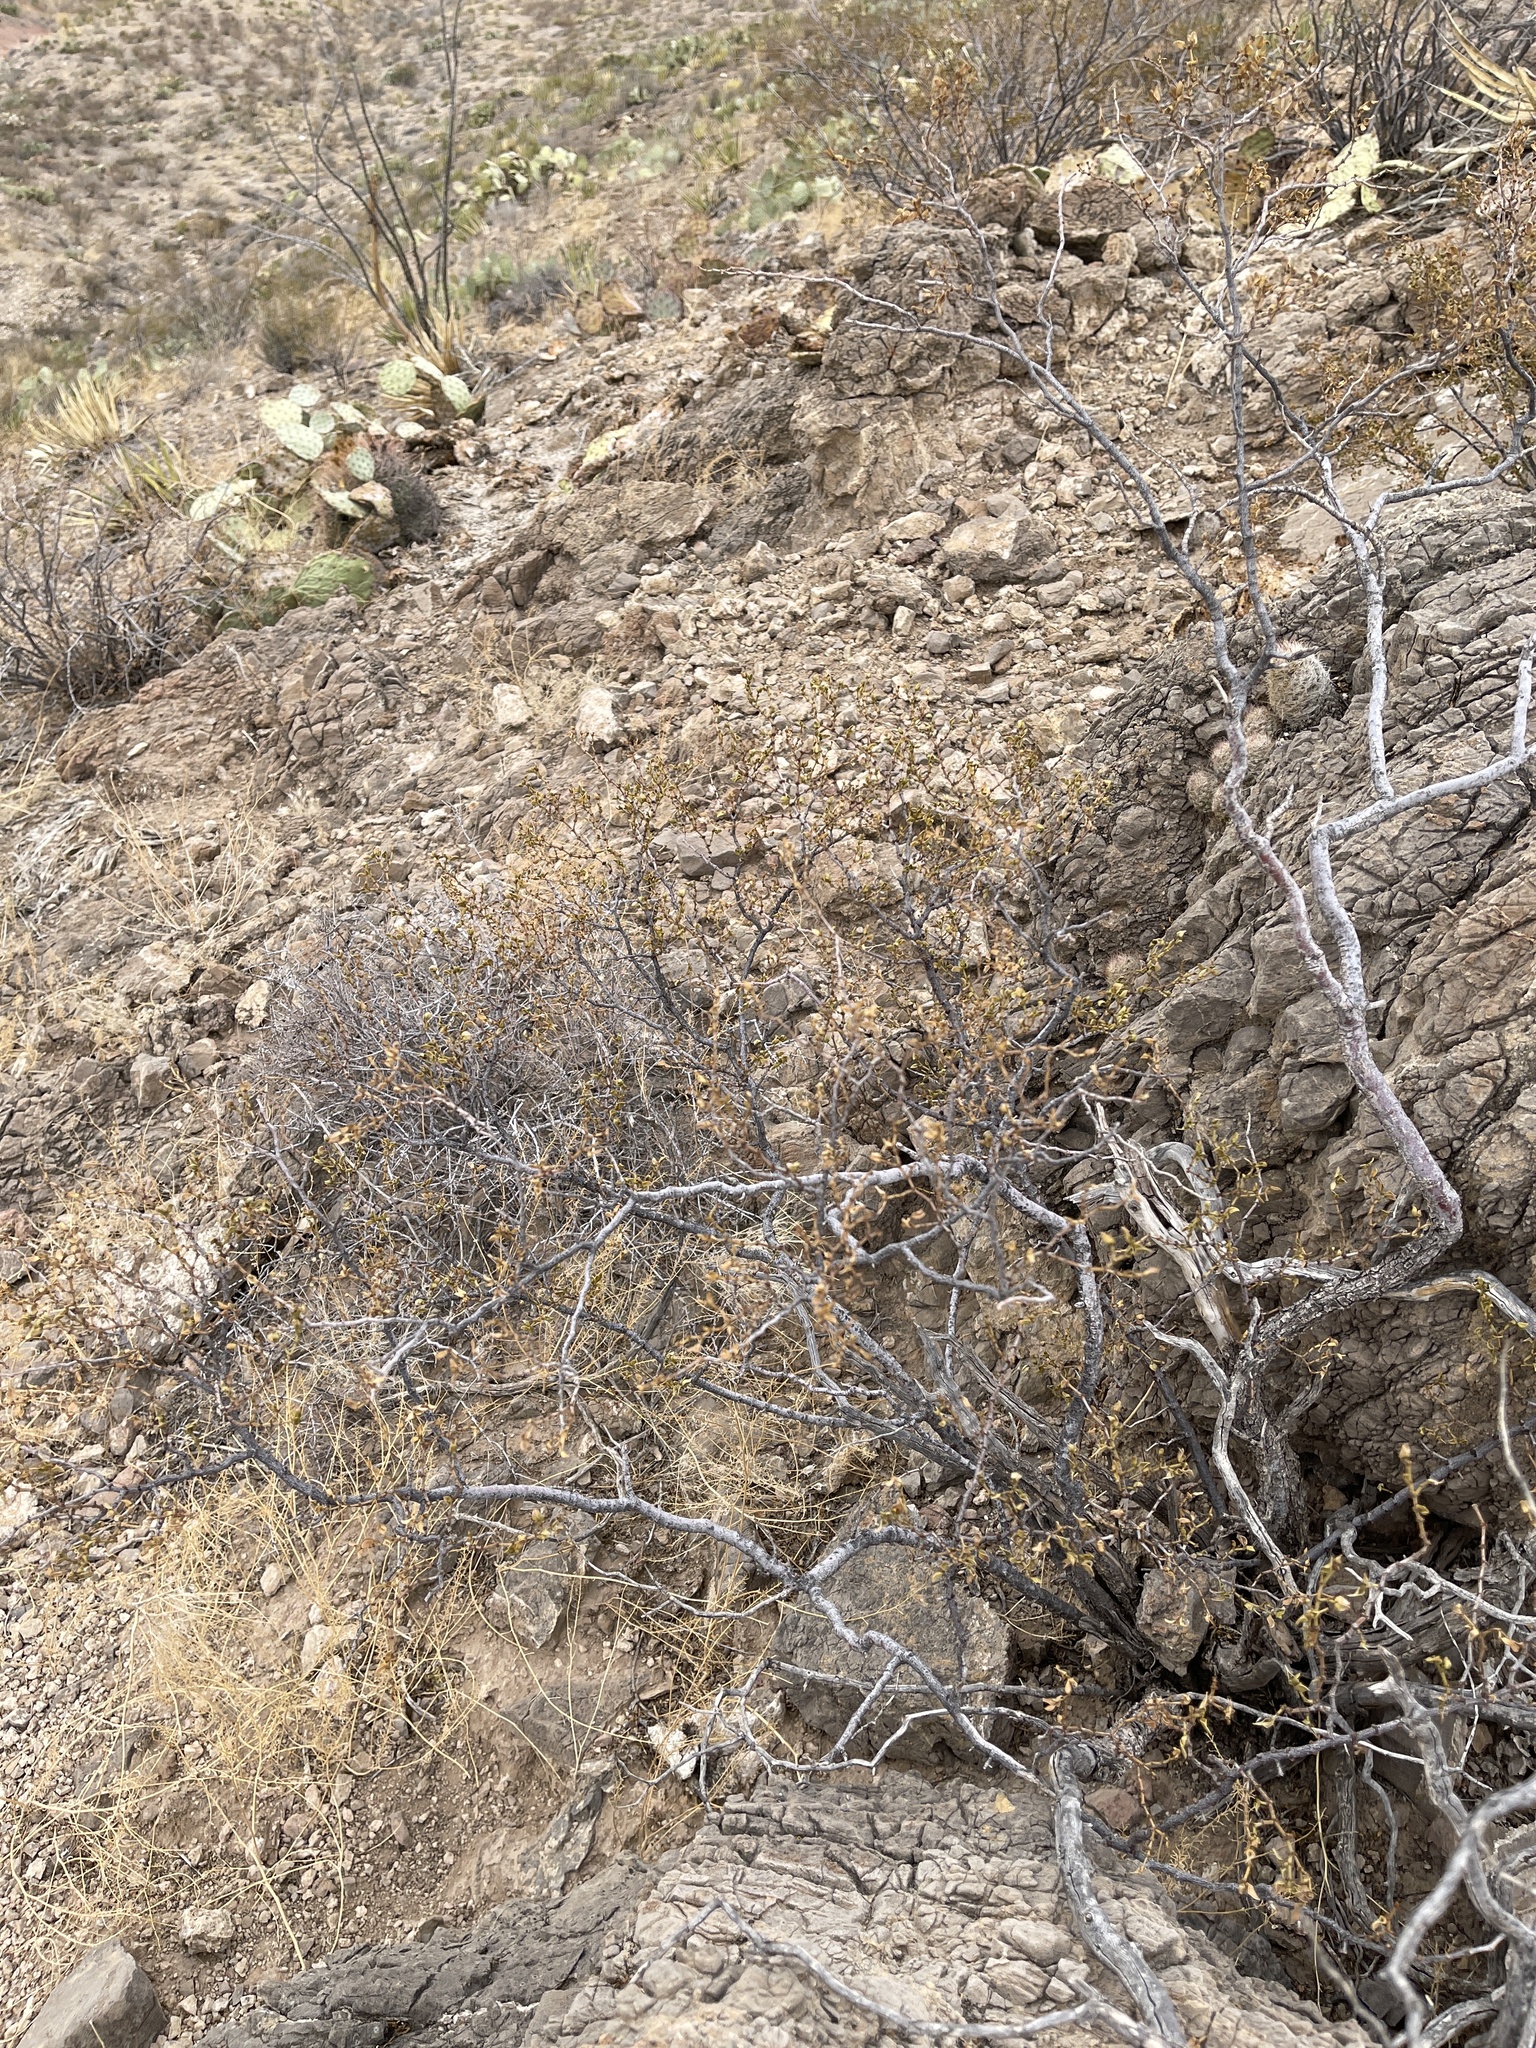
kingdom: Plantae
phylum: Tracheophyta
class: Magnoliopsida
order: Zygophyllales
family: Zygophyllaceae
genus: Larrea
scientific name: Larrea tridentata
